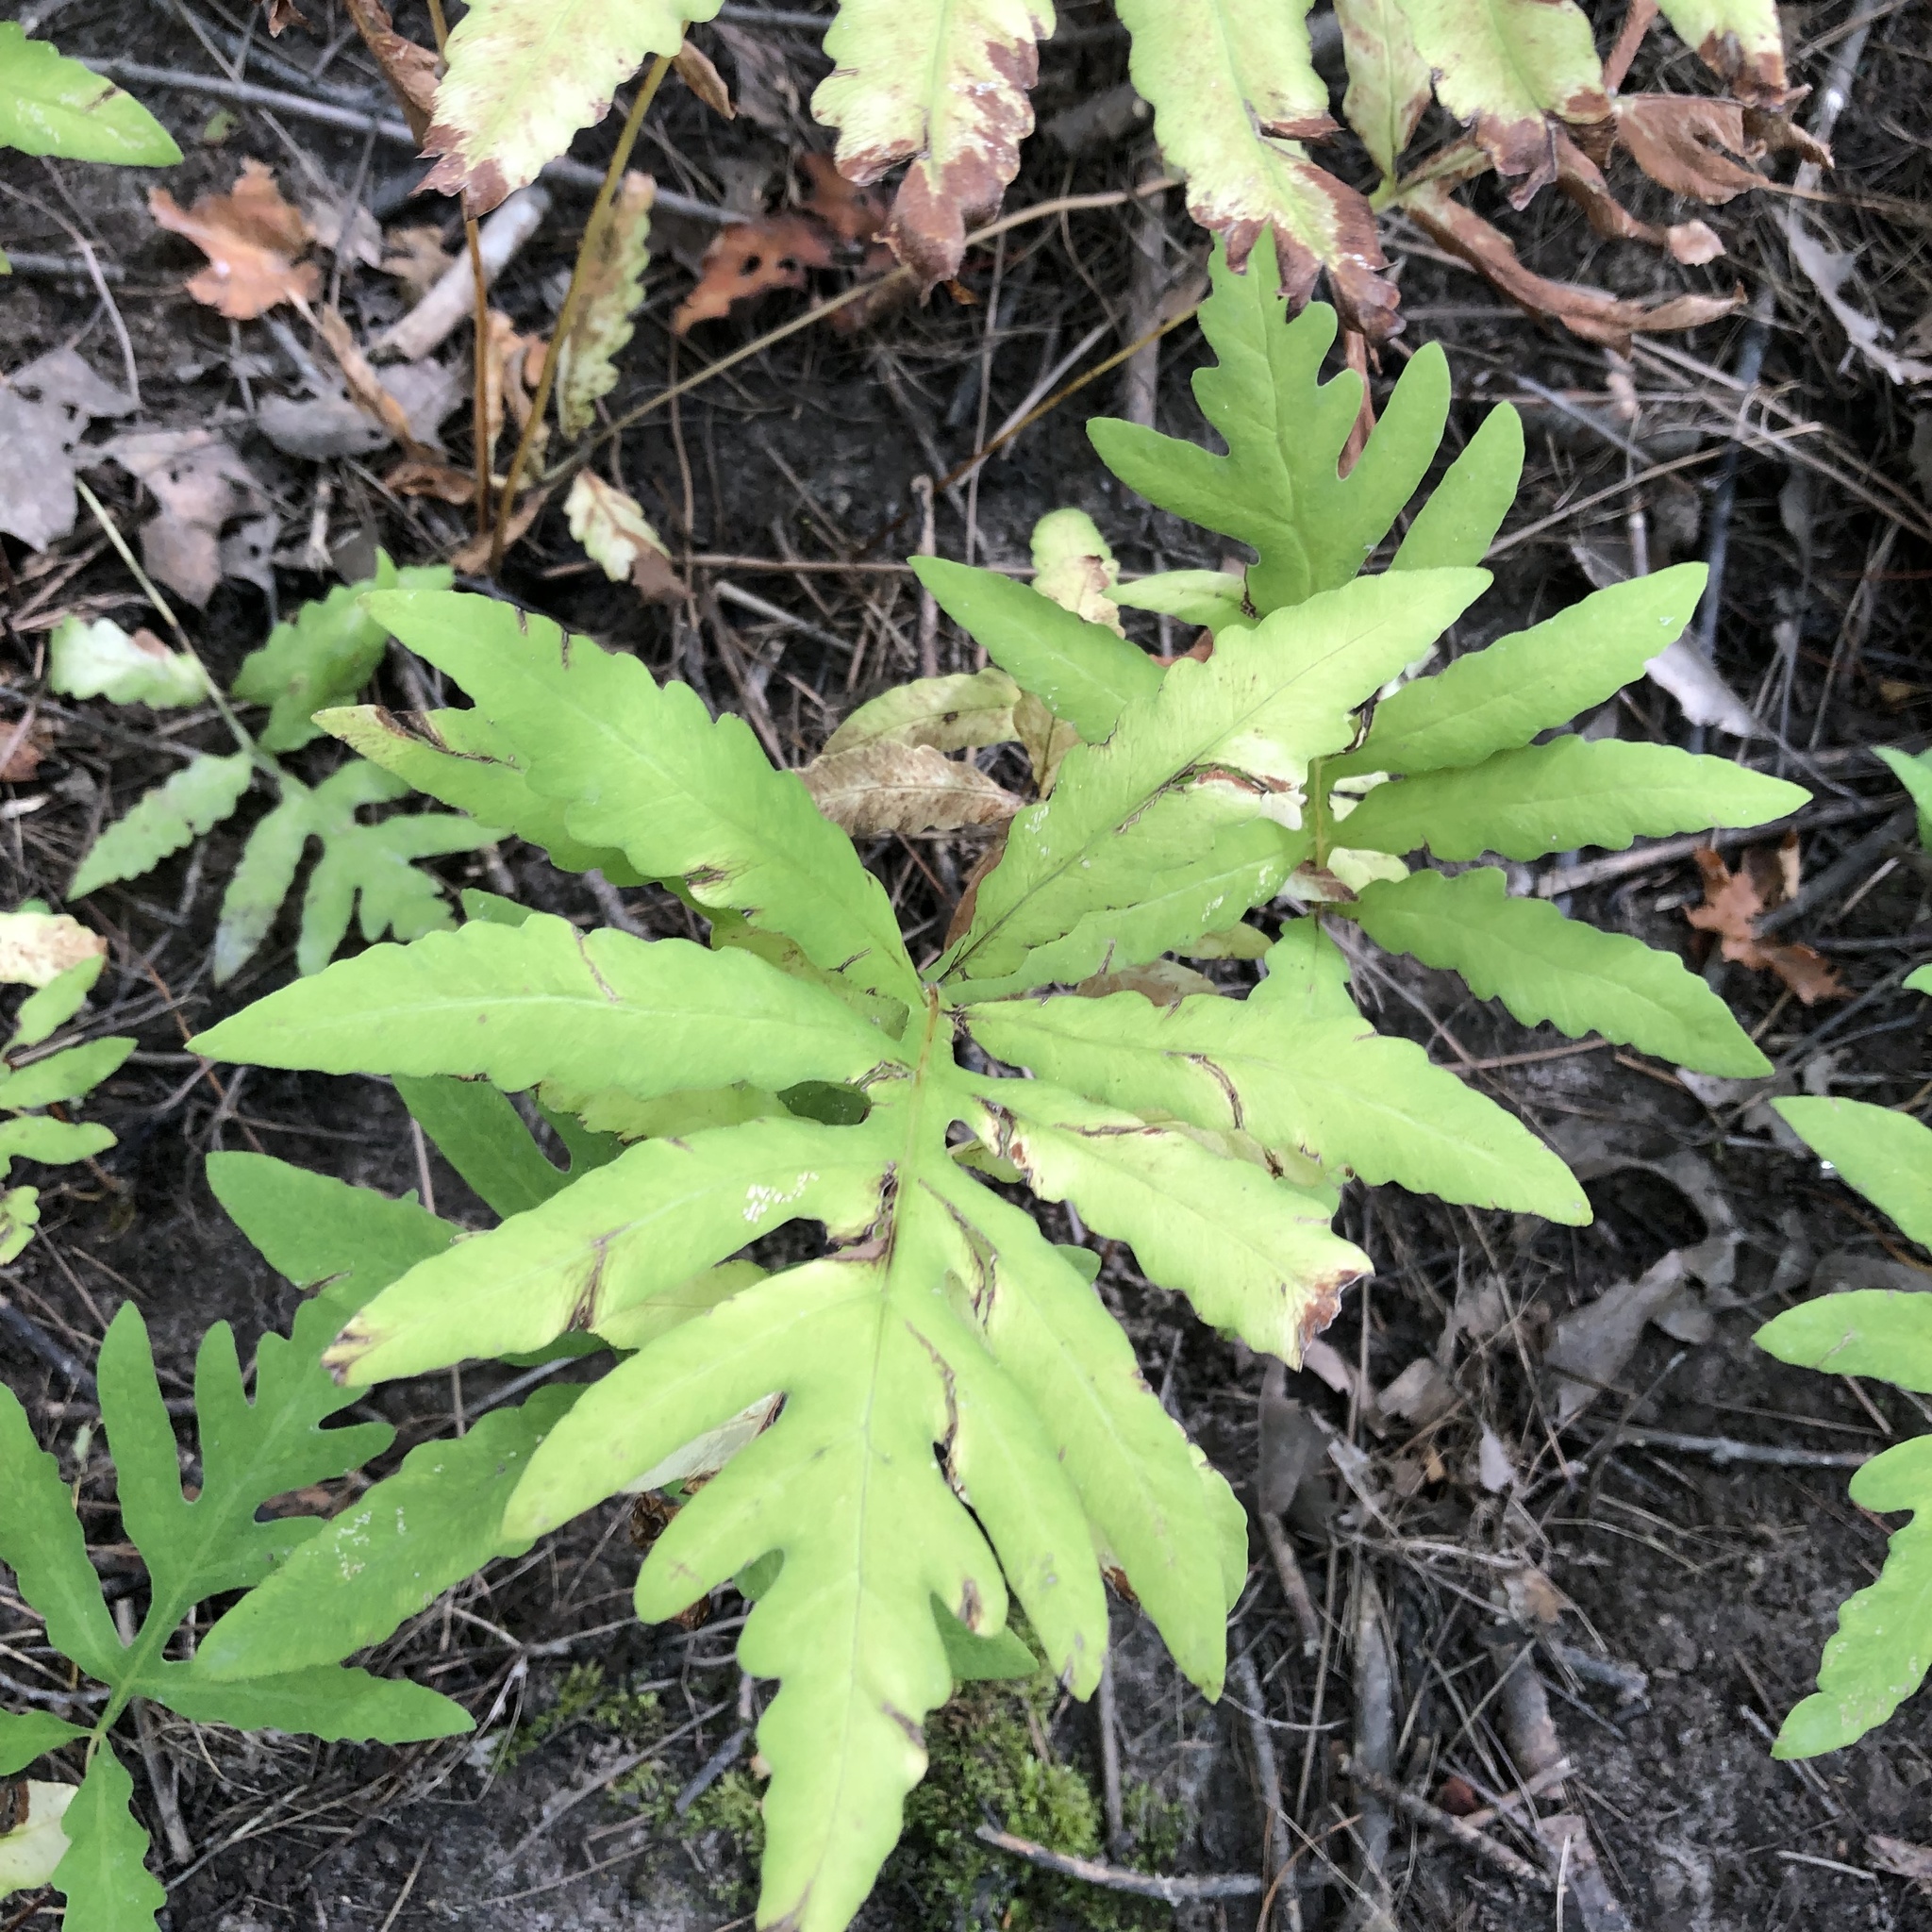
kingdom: Plantae
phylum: Tracheophyta
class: Polypodiopsida
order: Polypodiales
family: Onocleaceae
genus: Onoclea
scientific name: Onoclea sensibilis
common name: Sensitive fern
